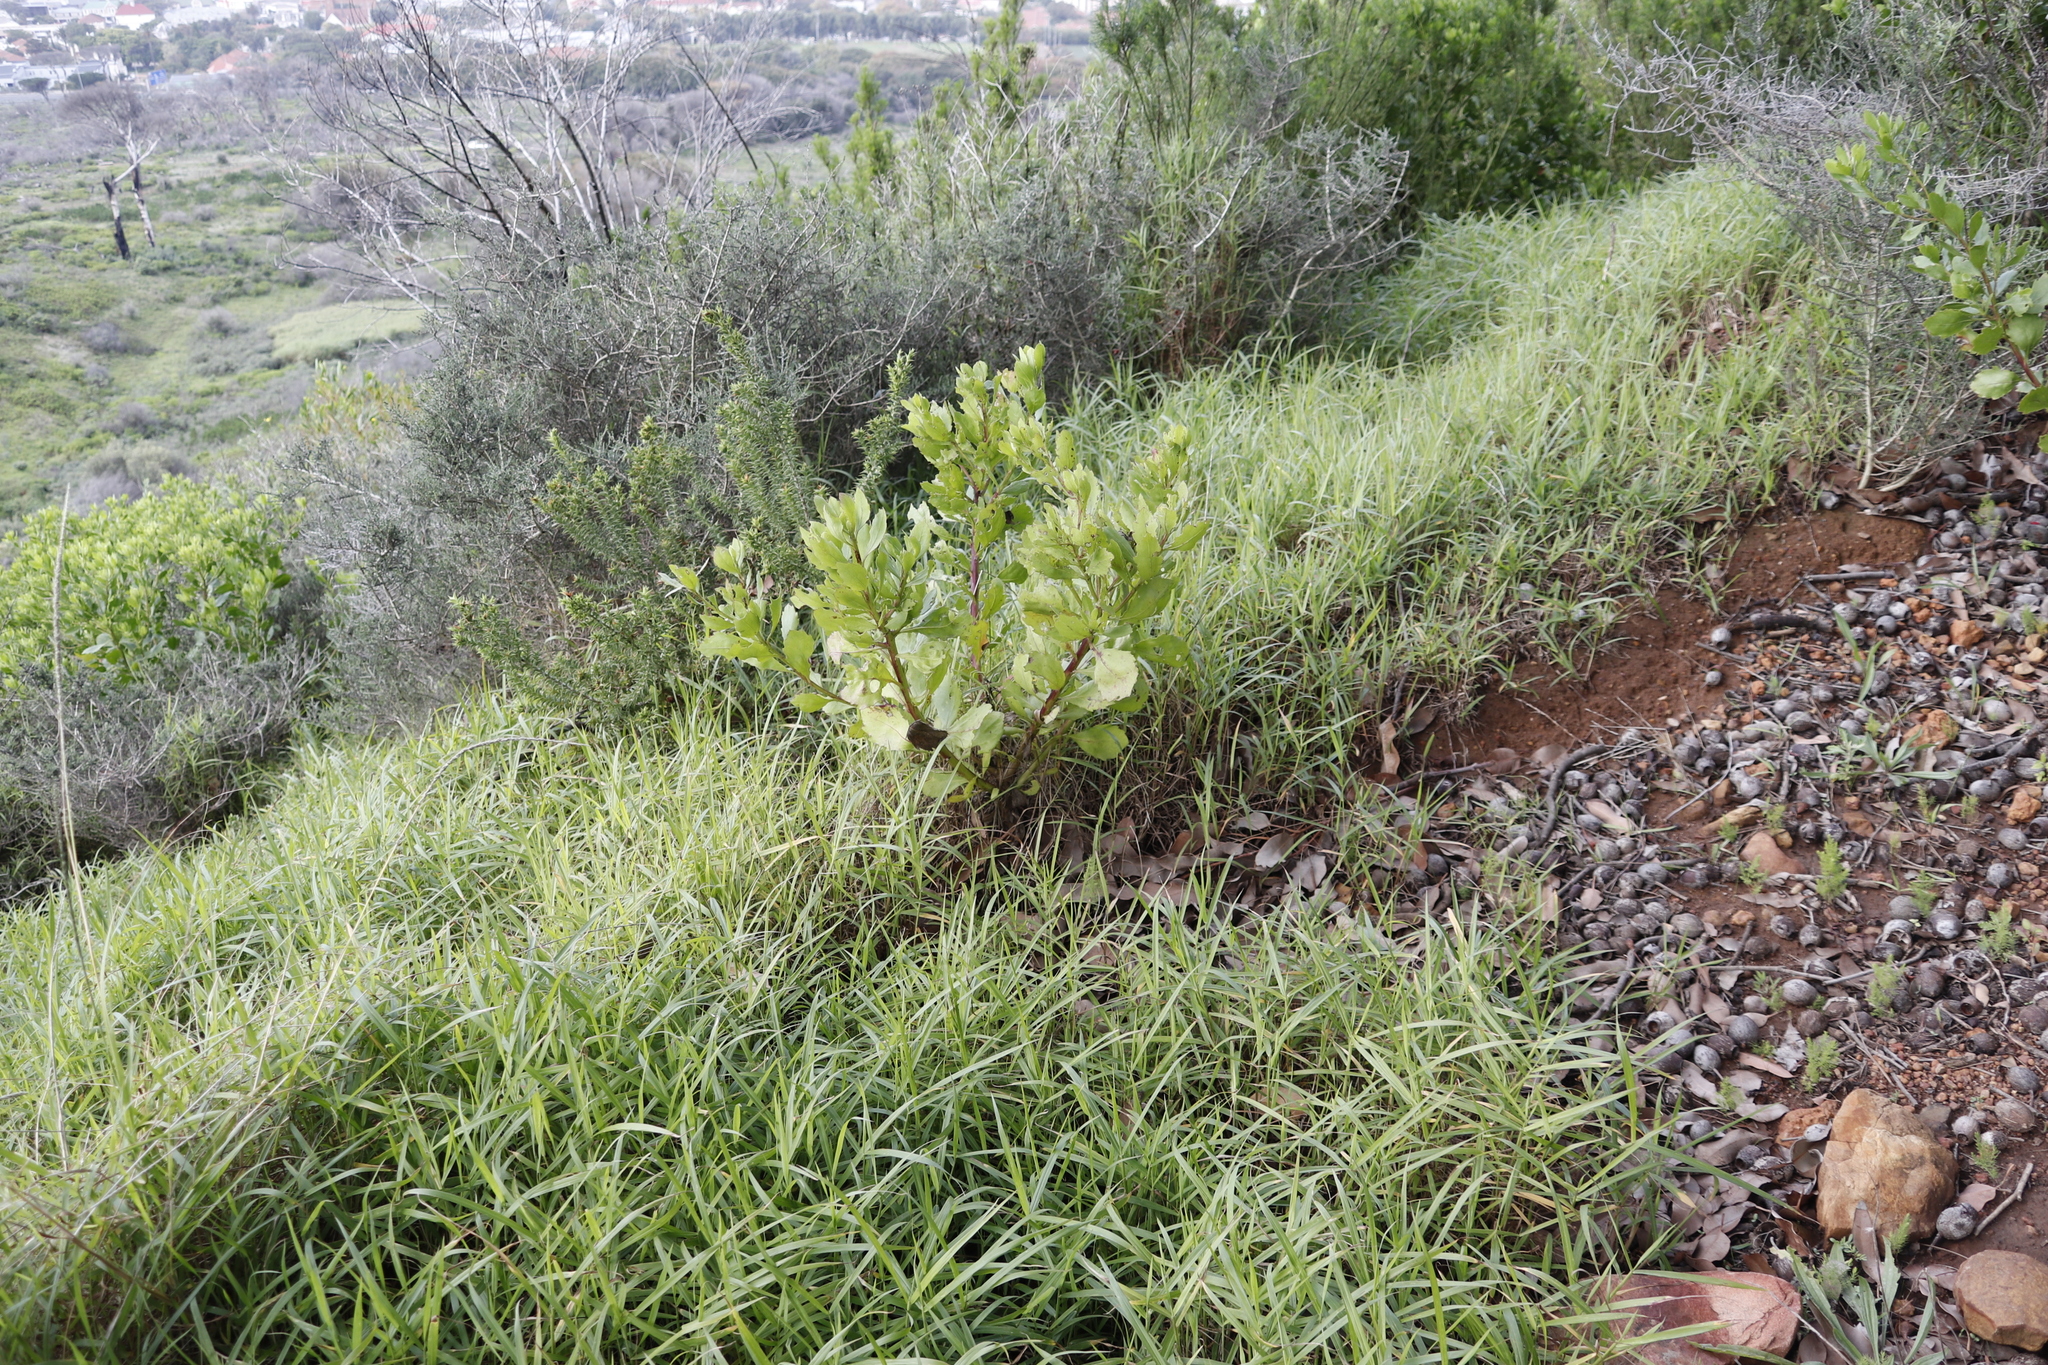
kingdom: Plantae
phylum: Tracheophyta
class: Magnoliopsida
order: Asterales
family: Asteraceae
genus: Osteospermum
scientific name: Osteospermum moniliferum
